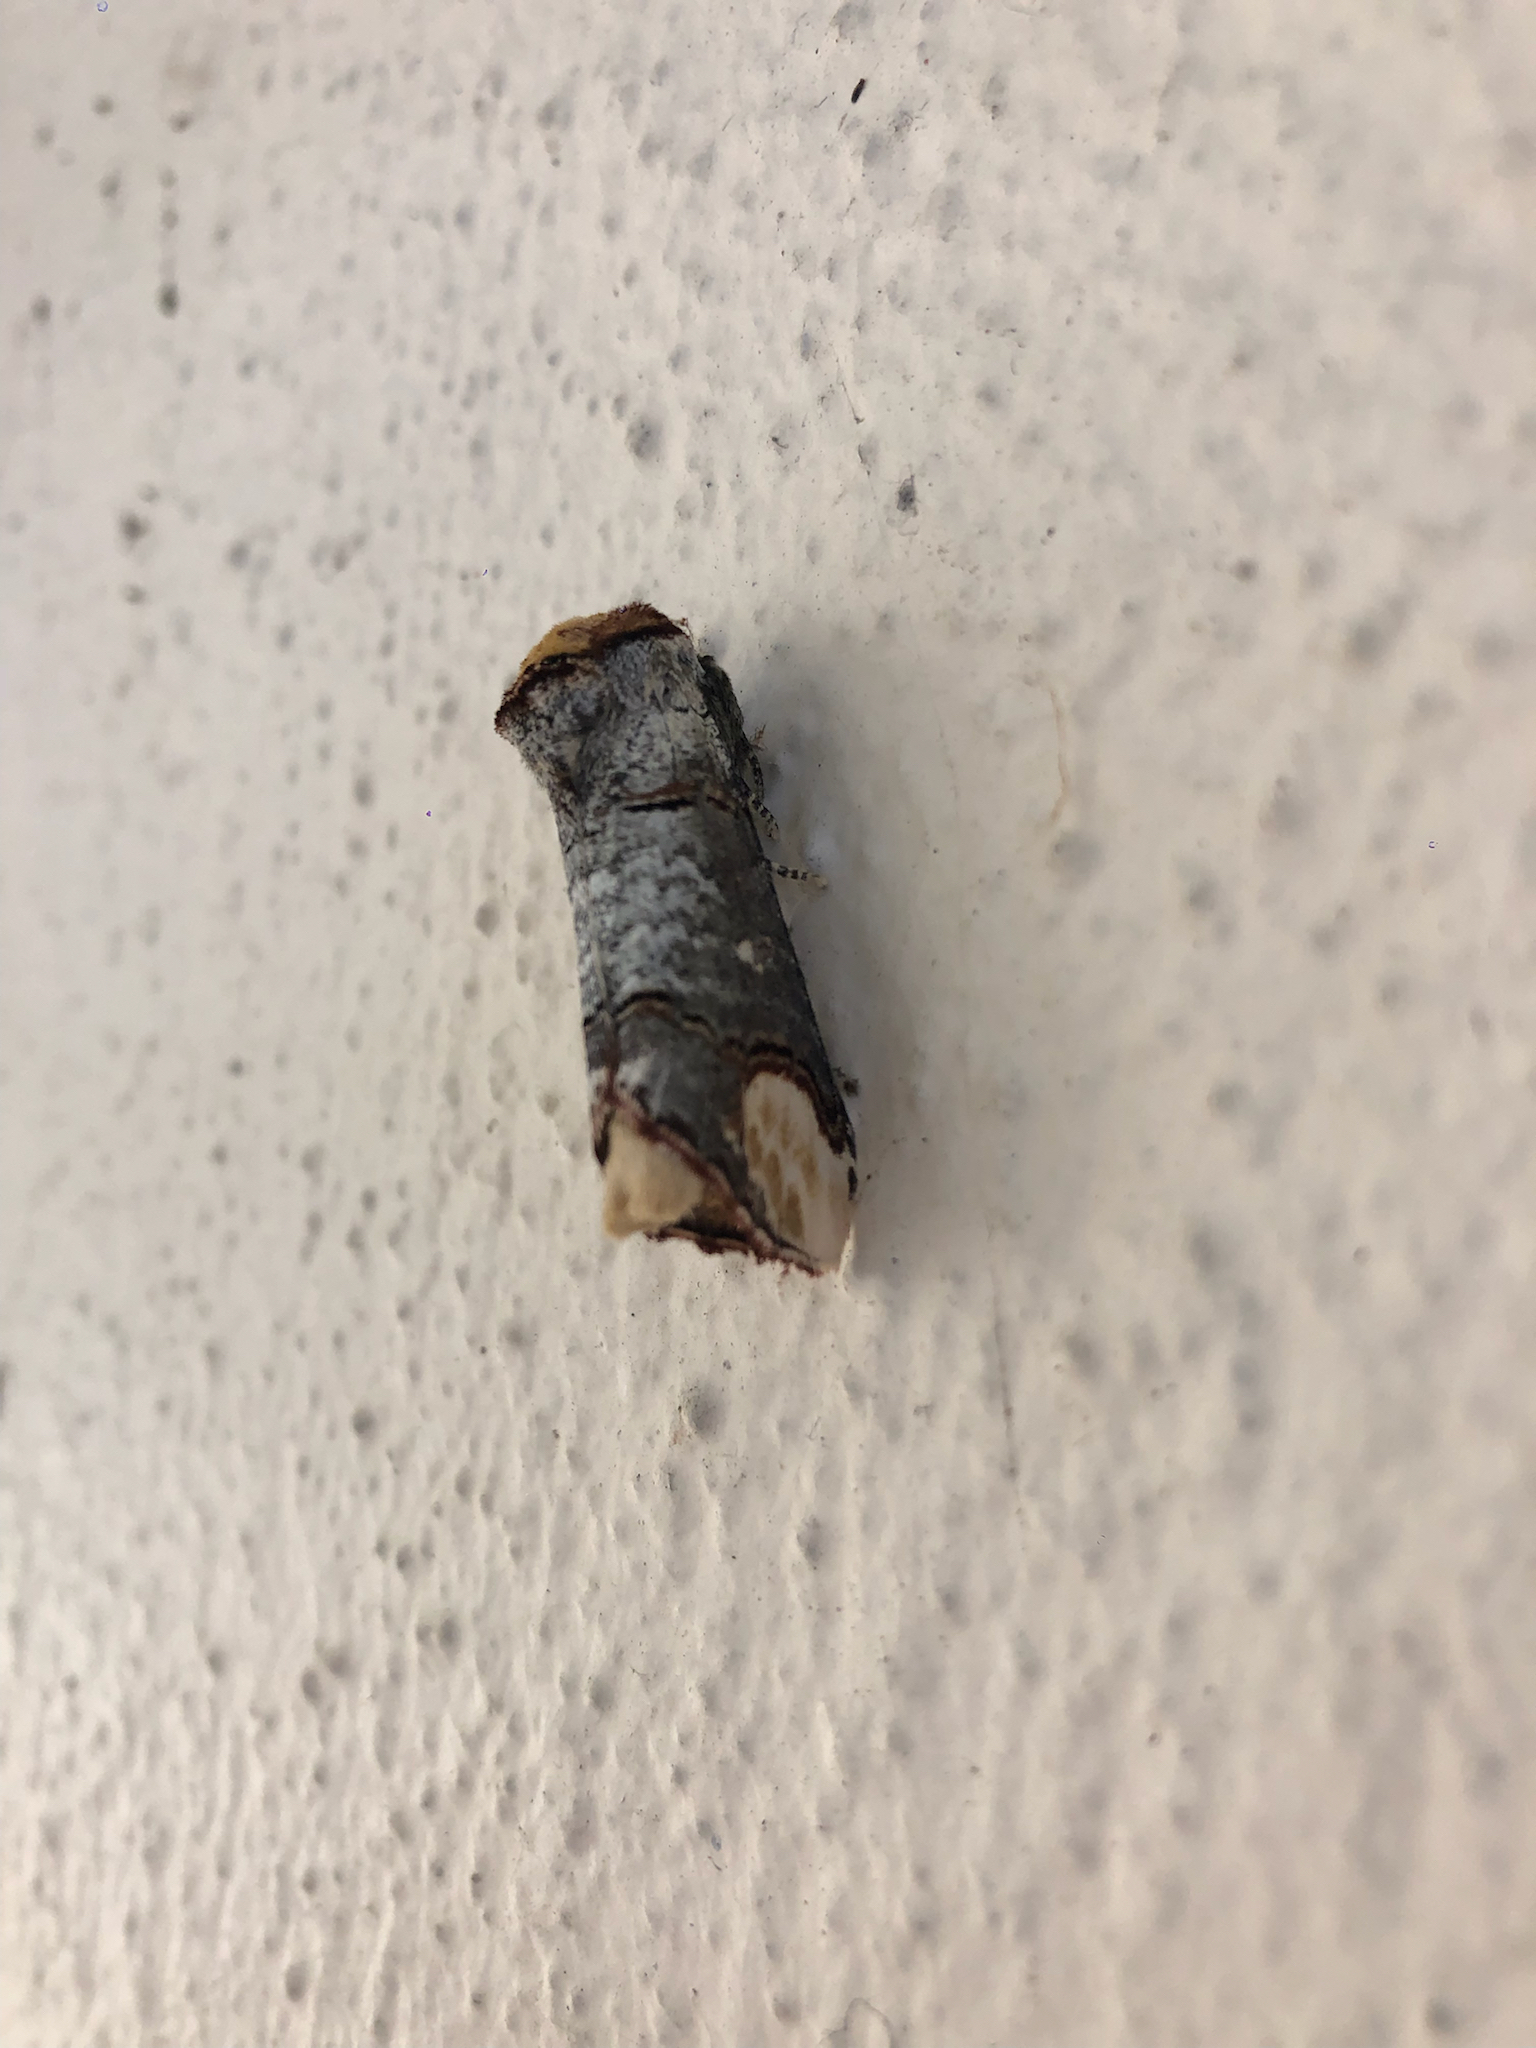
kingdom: Animalia
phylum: Arthropoda
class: Insecta
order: Lepidoptera
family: Notodontidae
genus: Phalera
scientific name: Phalera bucephala
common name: Buff-tip
